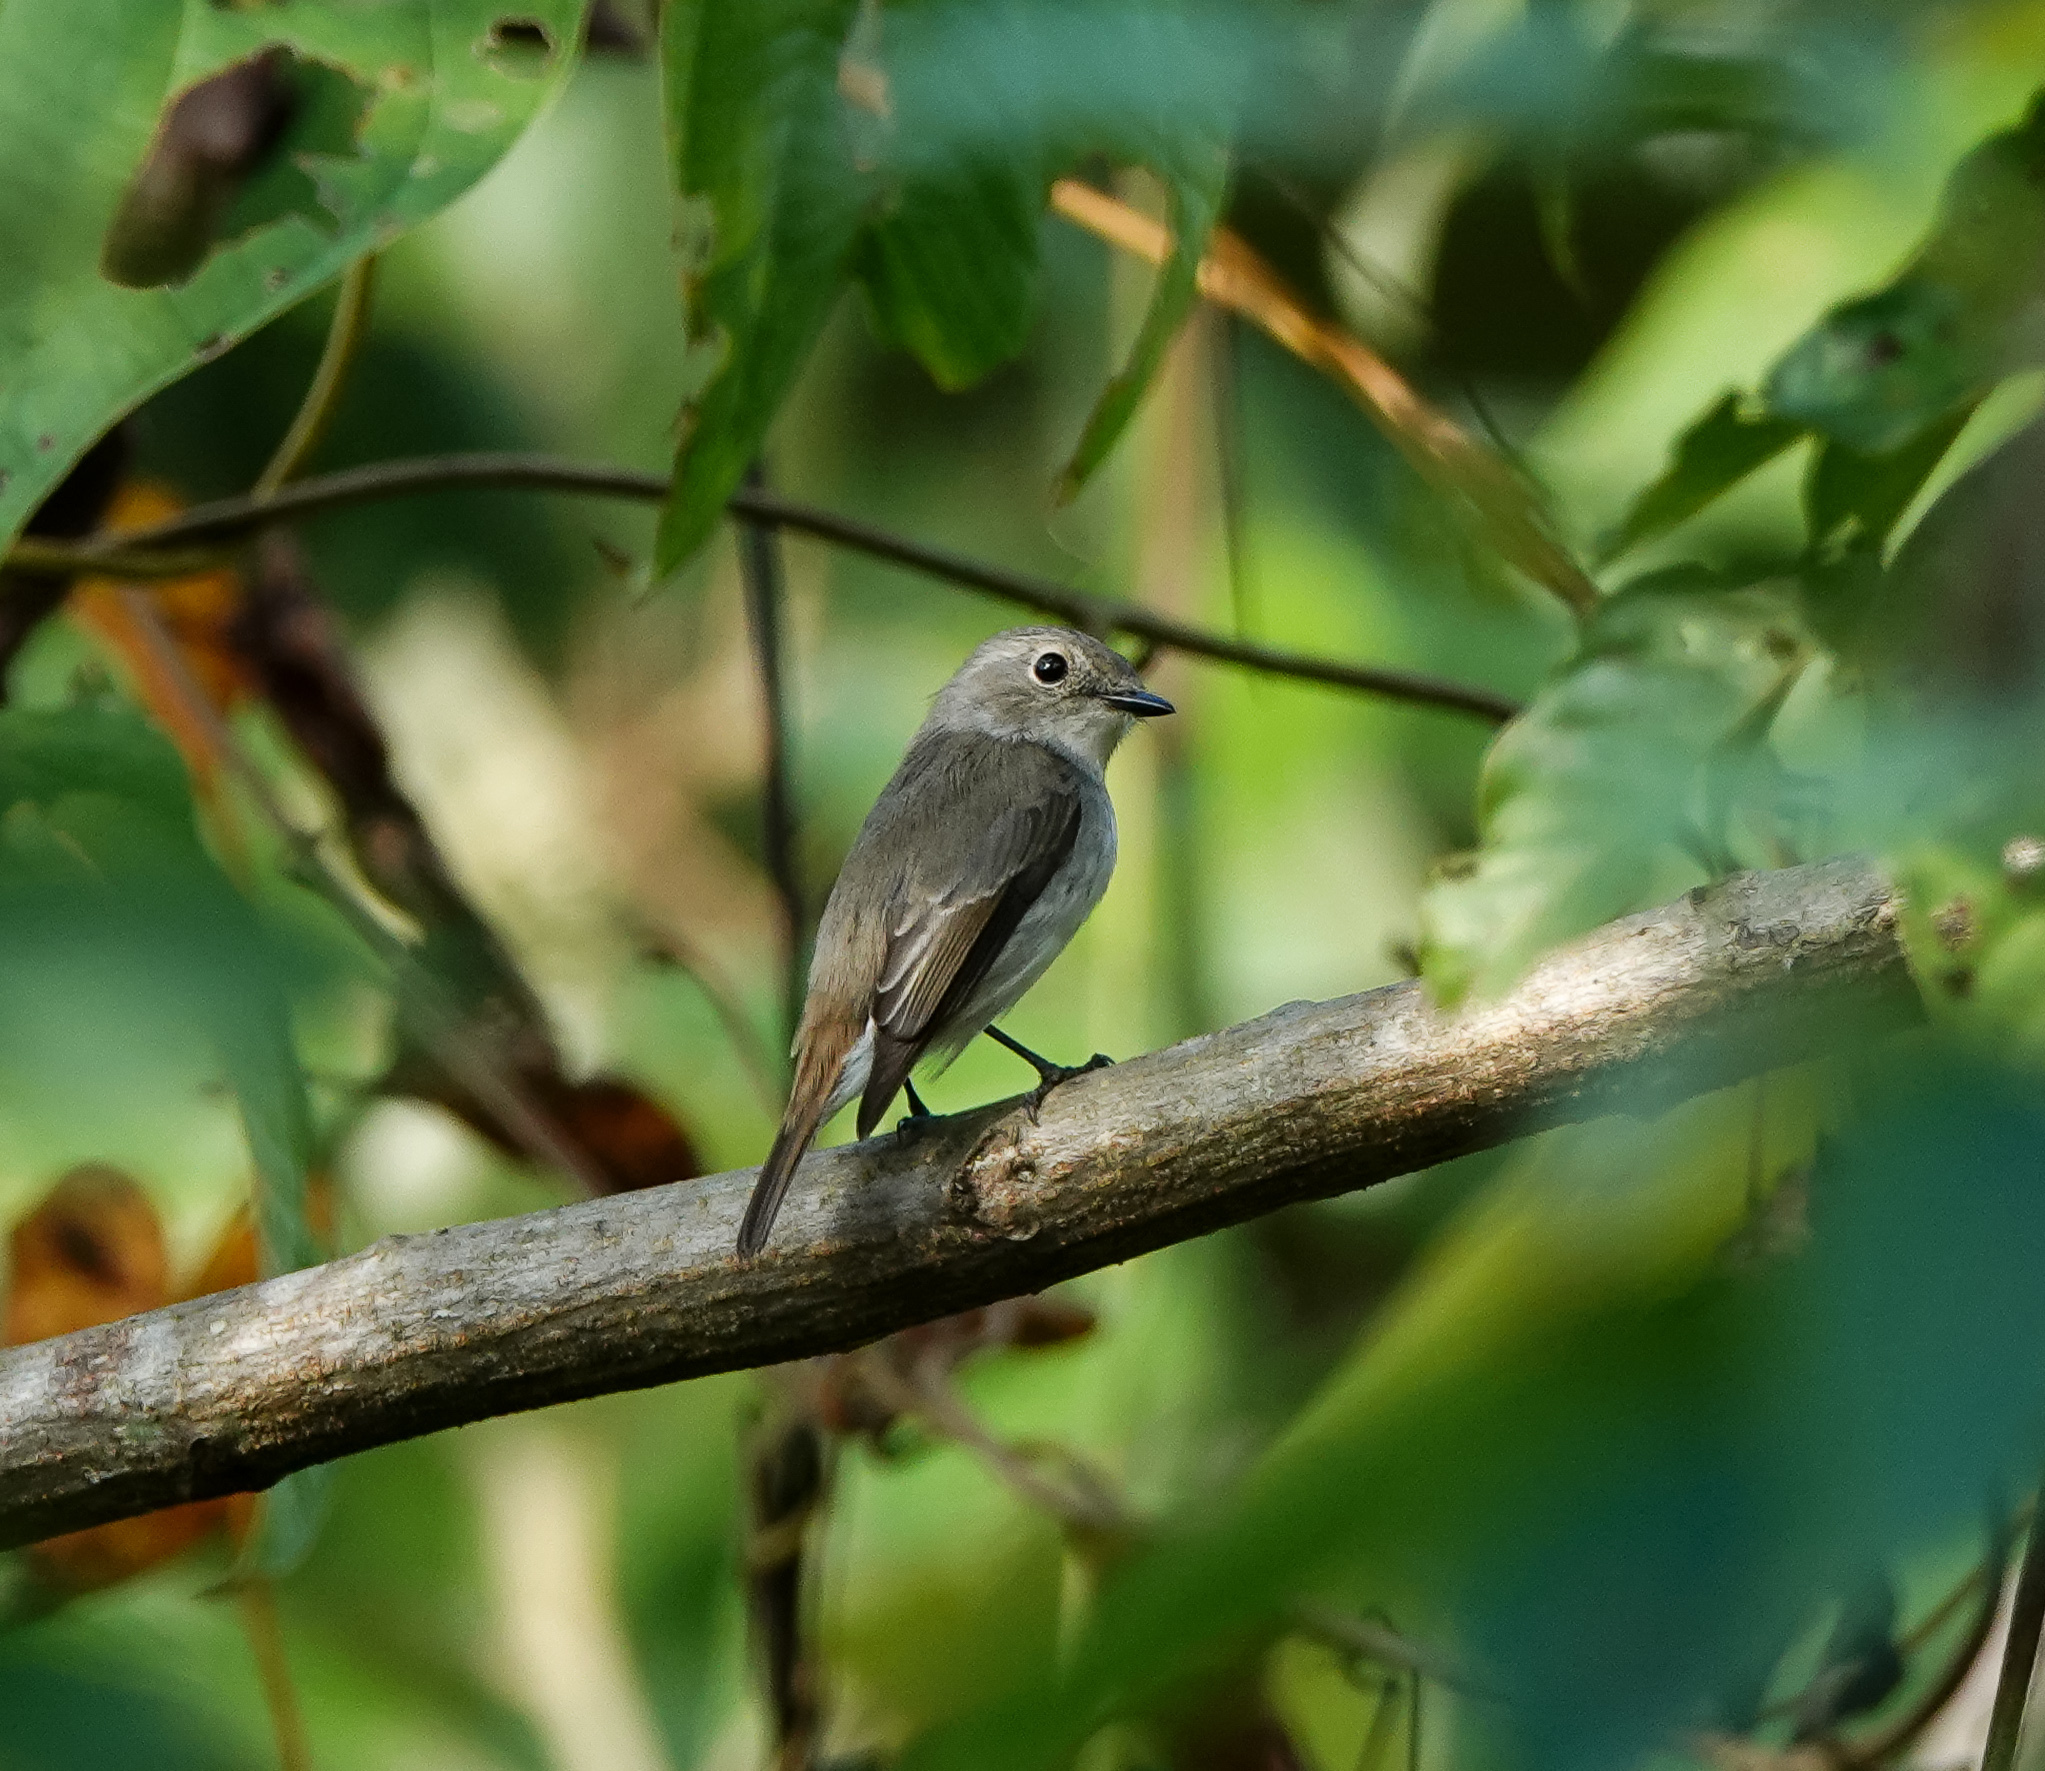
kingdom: Animalia
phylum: Chordata
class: Aves
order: Passeriformes
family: Muscicapidae
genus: Ficedula
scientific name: Ficedula westermanni
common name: Little pied flycatcher
